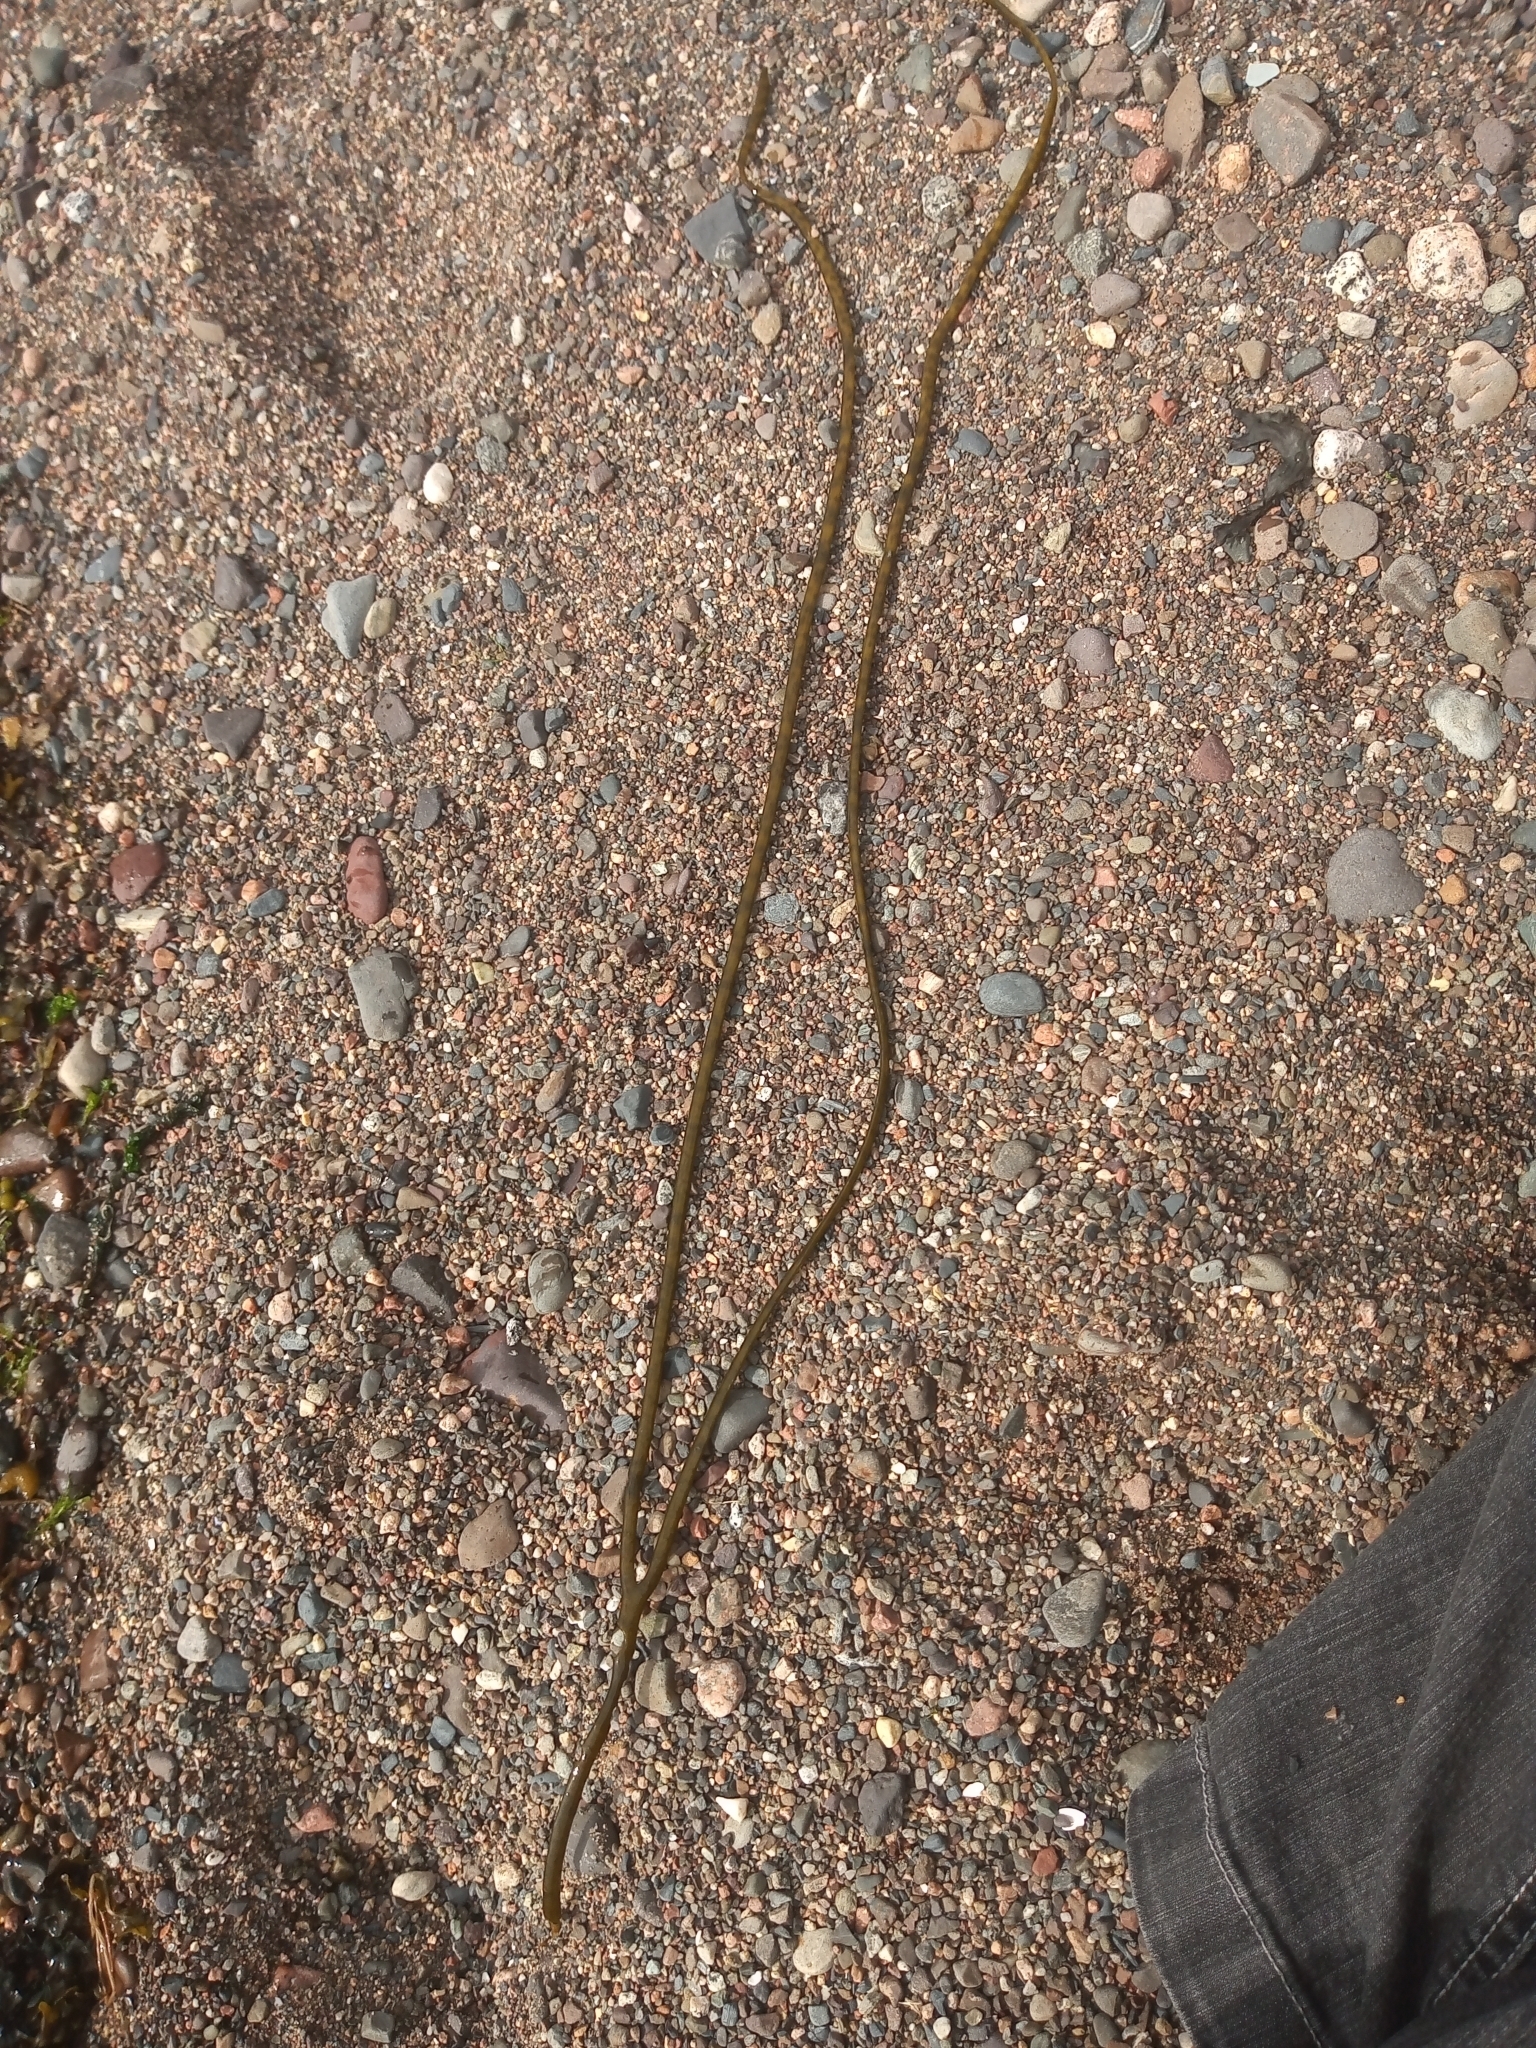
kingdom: Chromista
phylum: Ochrophyta
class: Phaeophyceae
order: Fucales
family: Himanthaliaceae
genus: Himanthalia
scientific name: Himanthalia elongata
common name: Sea-thong
